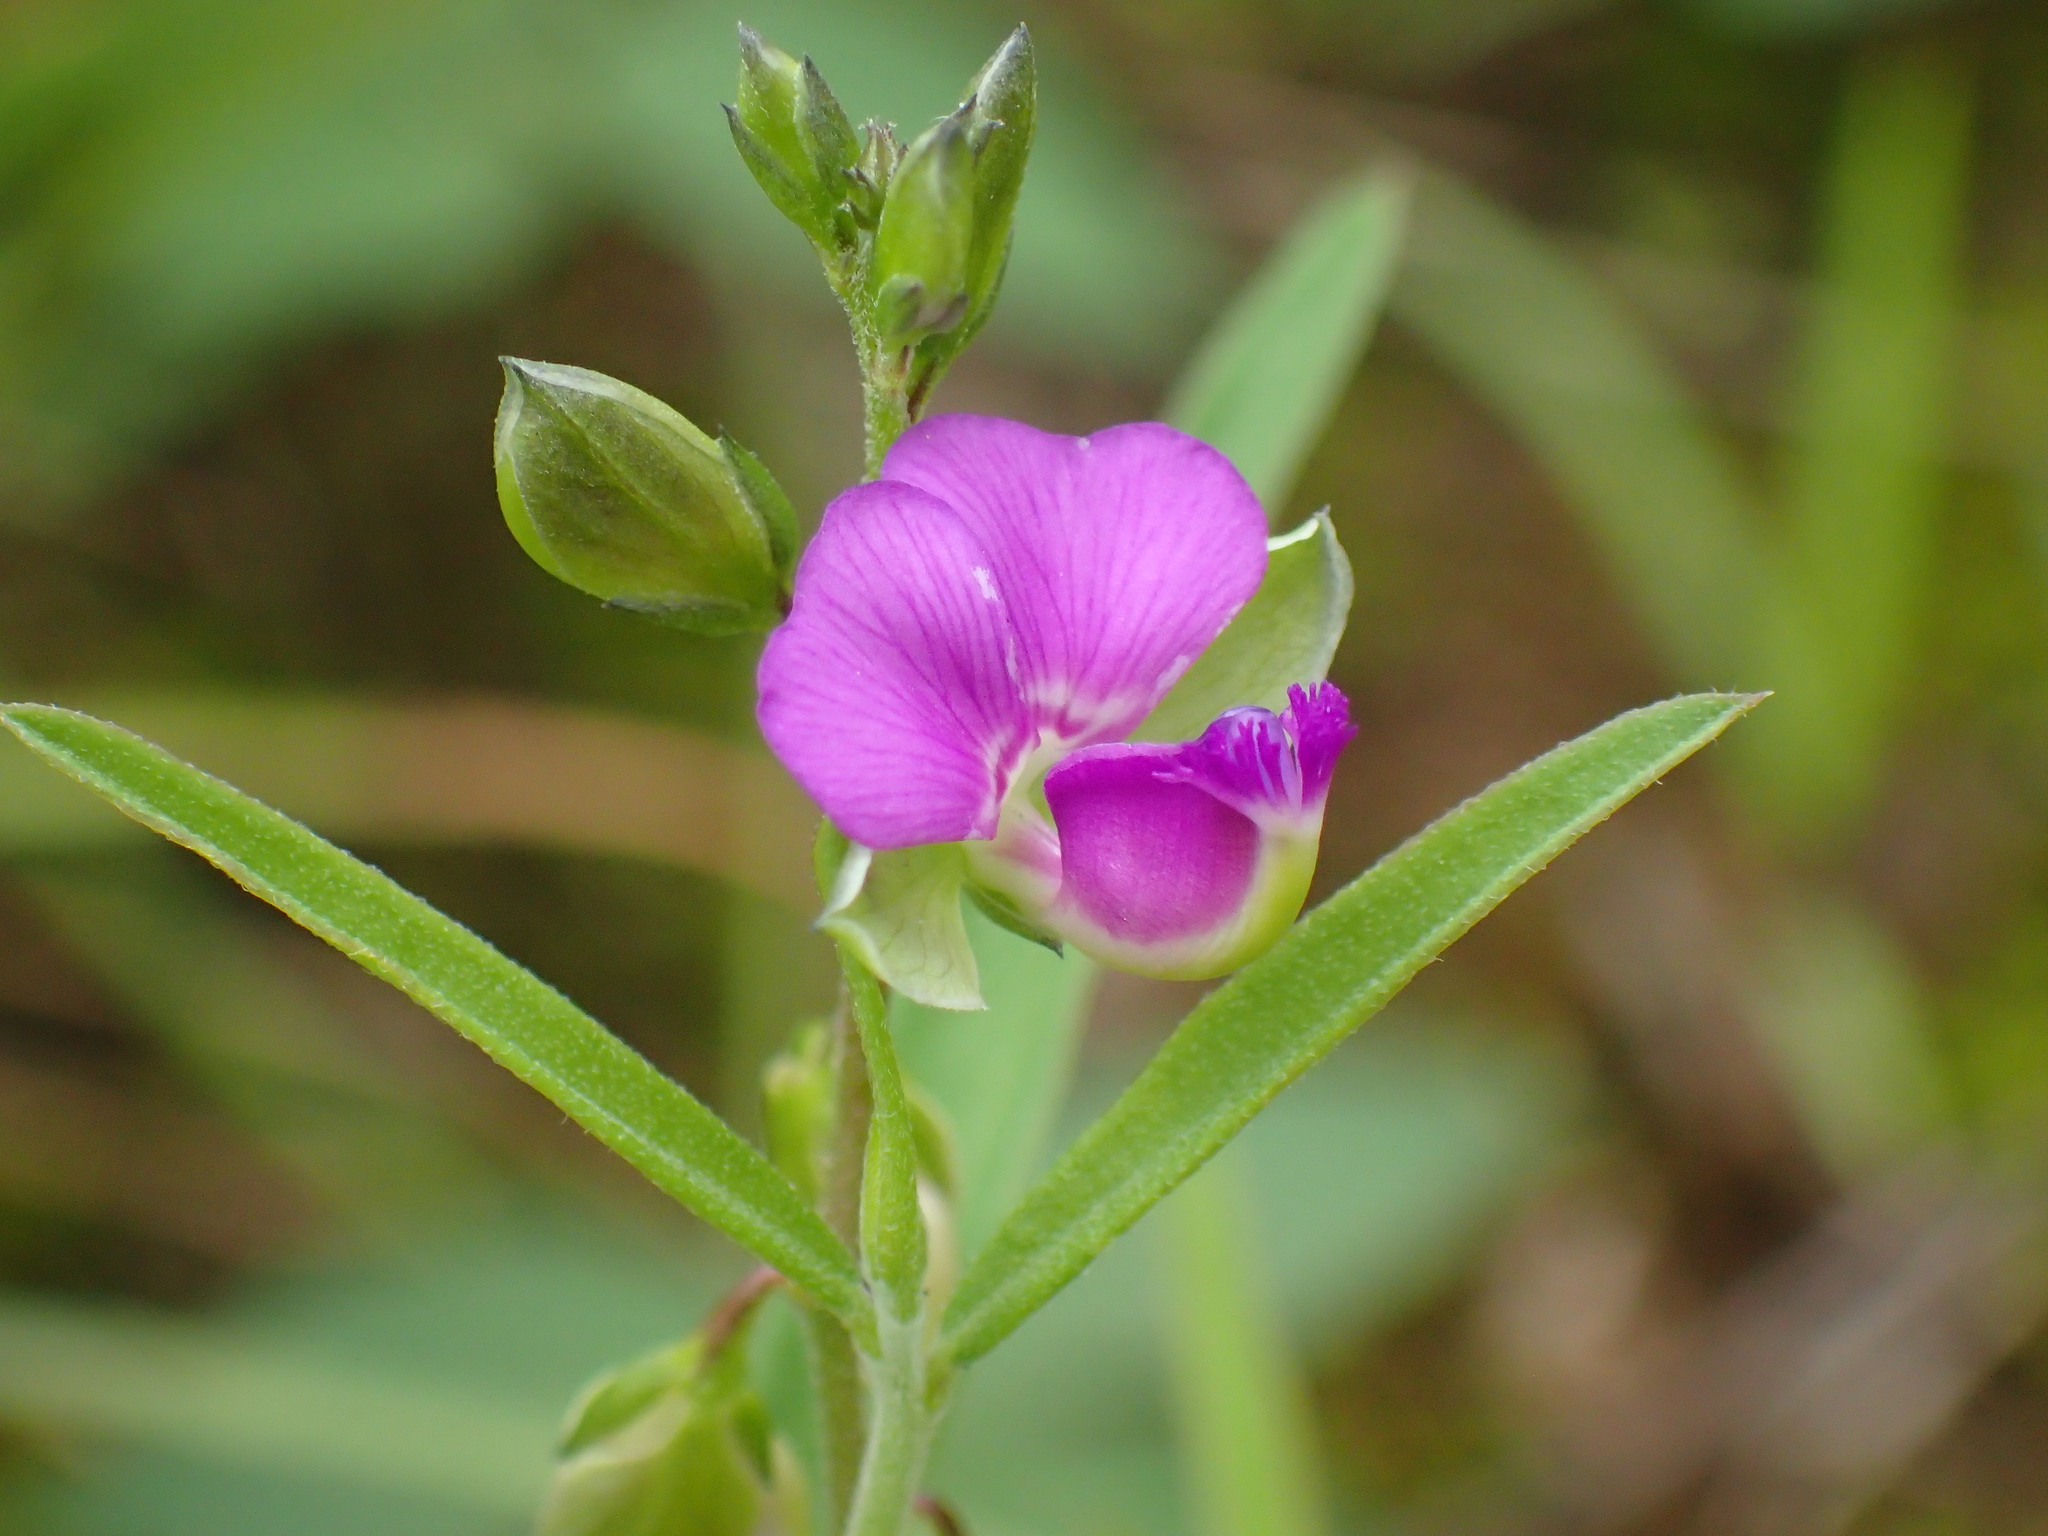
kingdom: Plantae
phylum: Tracheophyta
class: Magnoliopsida
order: Fabales
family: Polygalaceae
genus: Polygala
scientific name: Polygala amatymbica
